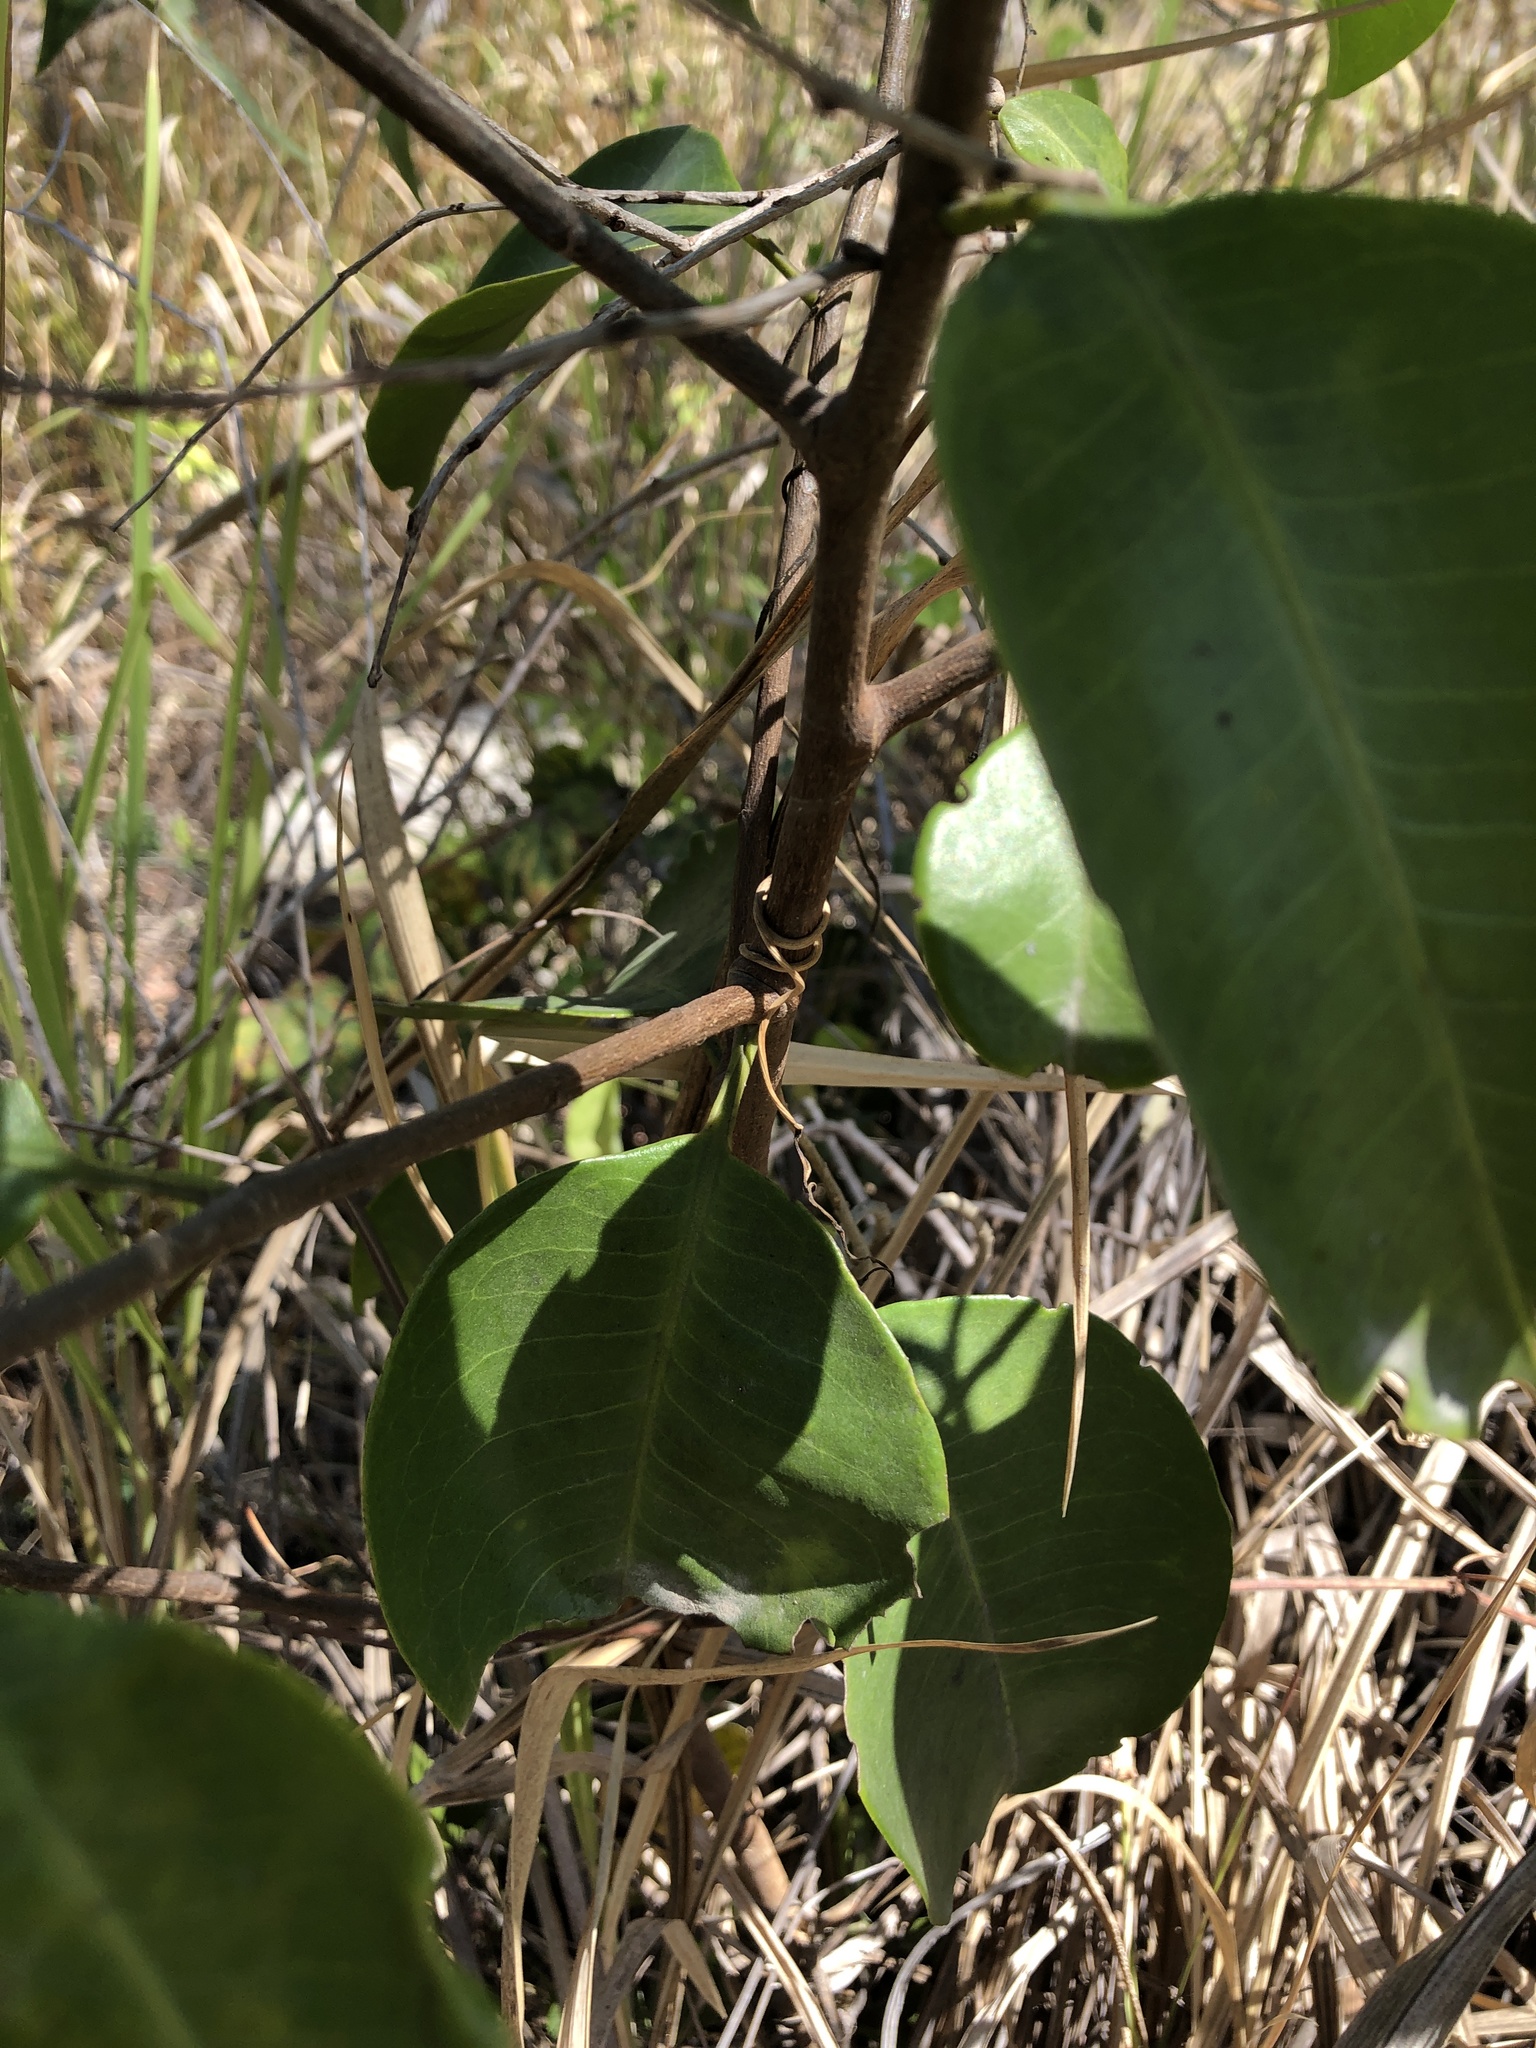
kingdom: Plantae
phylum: Tracheophyta
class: Magnoliopsida
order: Sapindales
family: Rutaceae
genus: Geijera
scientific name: Geijera salicifolia
